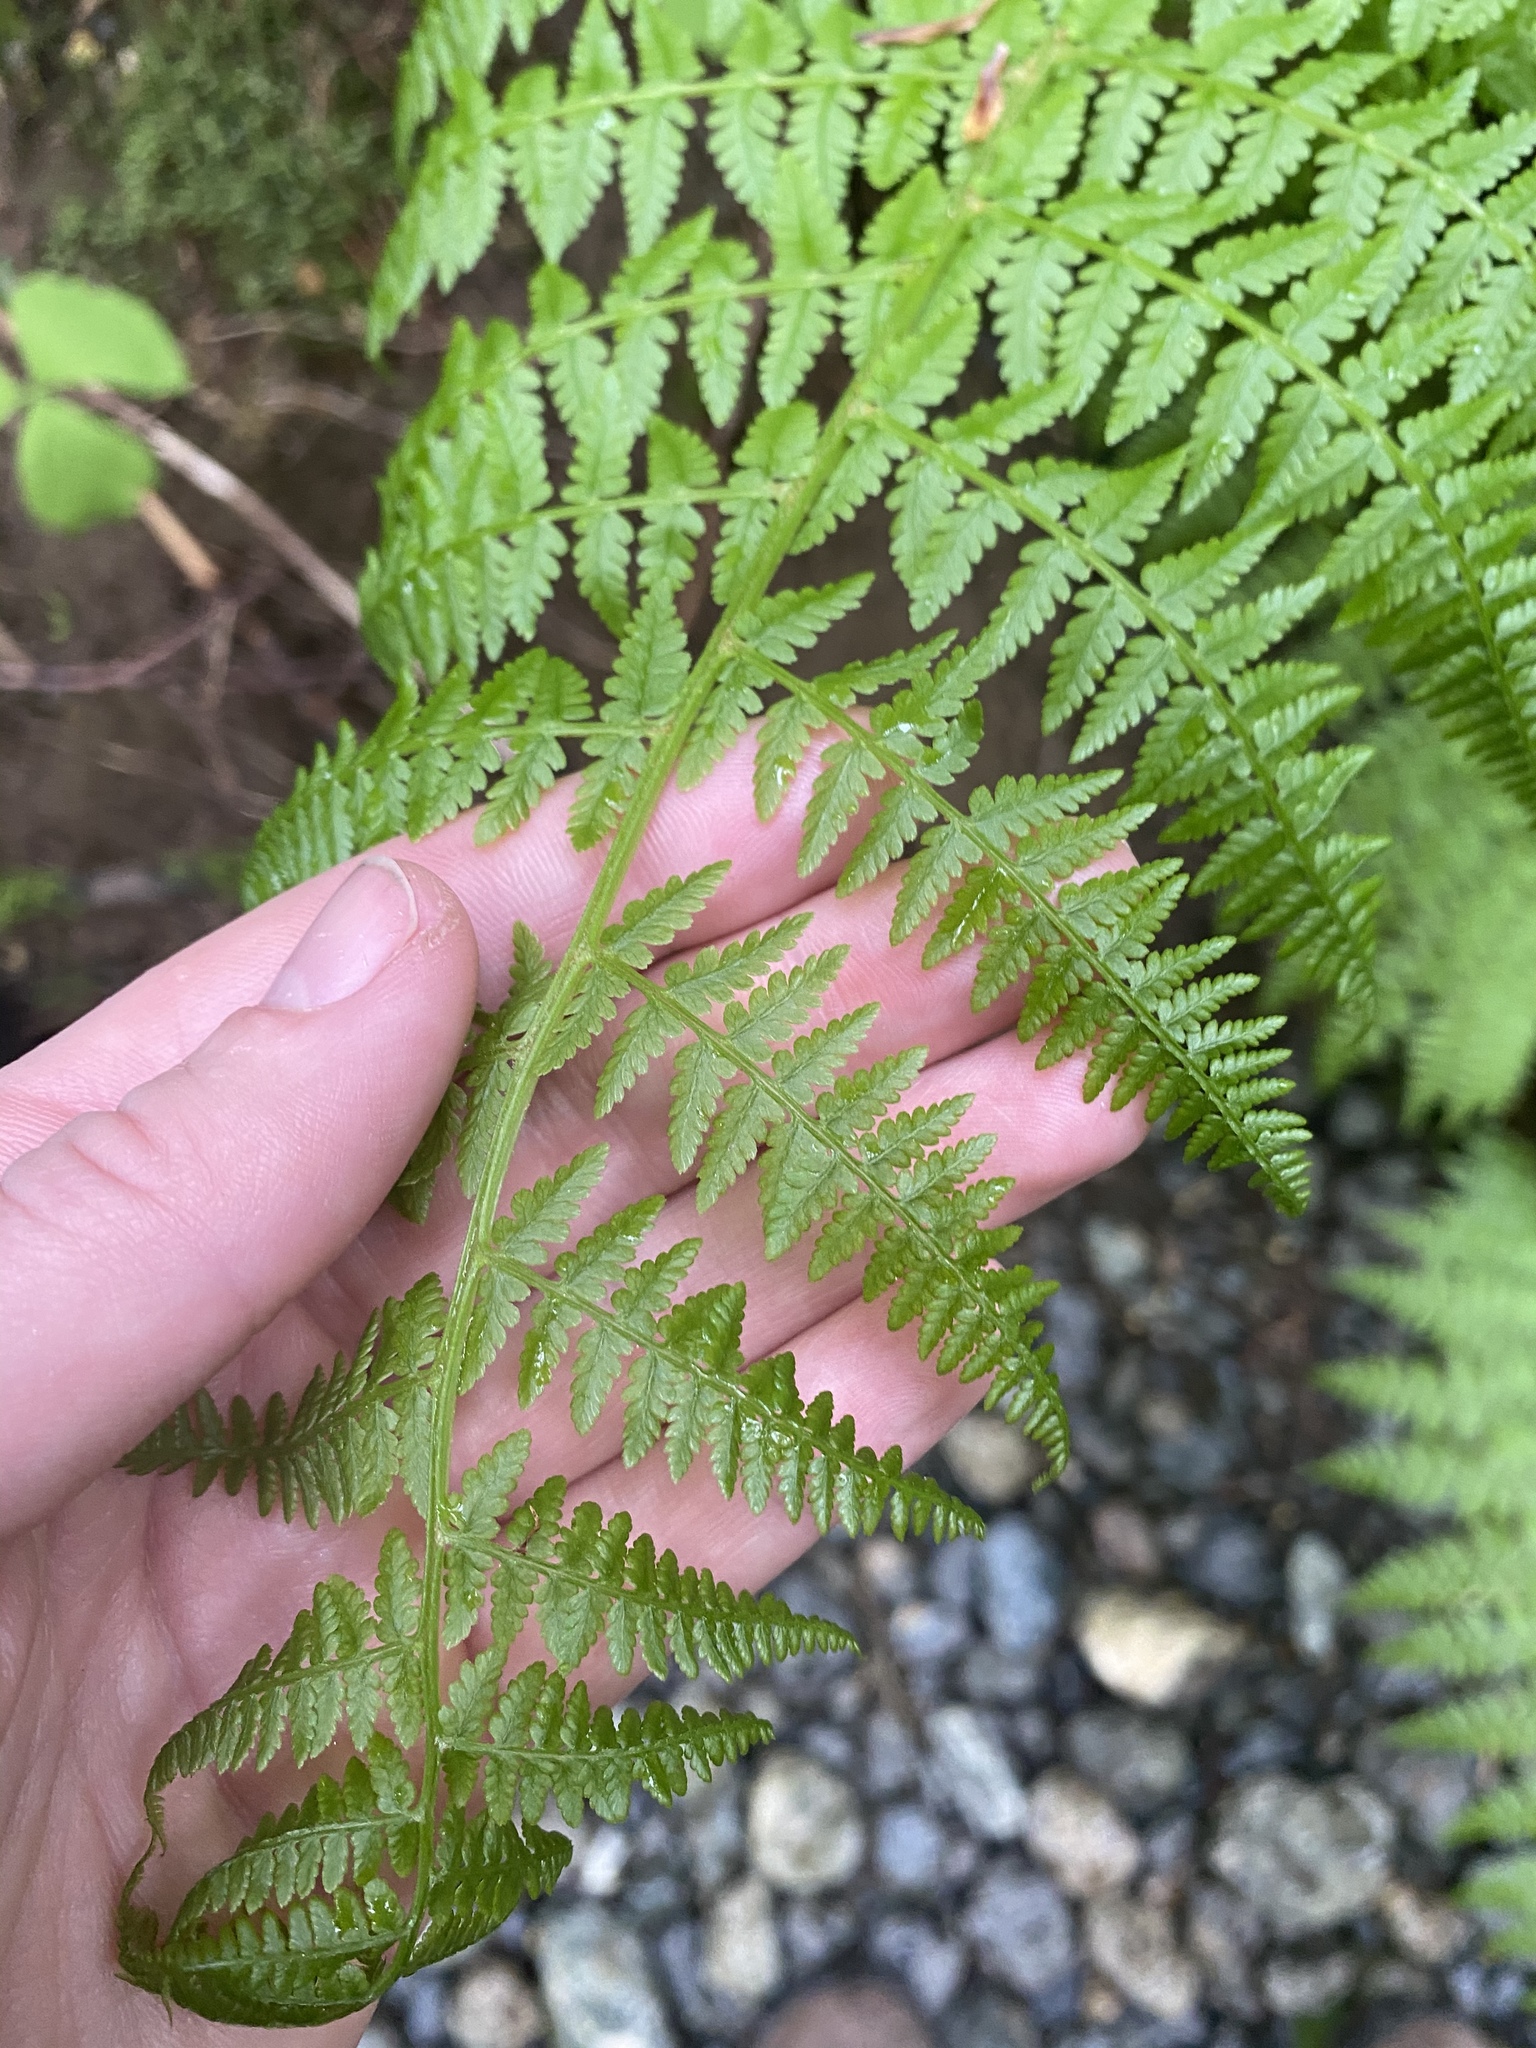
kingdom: Plantae
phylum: Tracheophyta
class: Polypodiopsida
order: Polypodiales
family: Athyriaceae
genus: Athyrium
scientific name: Athyrium filix-femina
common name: Lady fern
